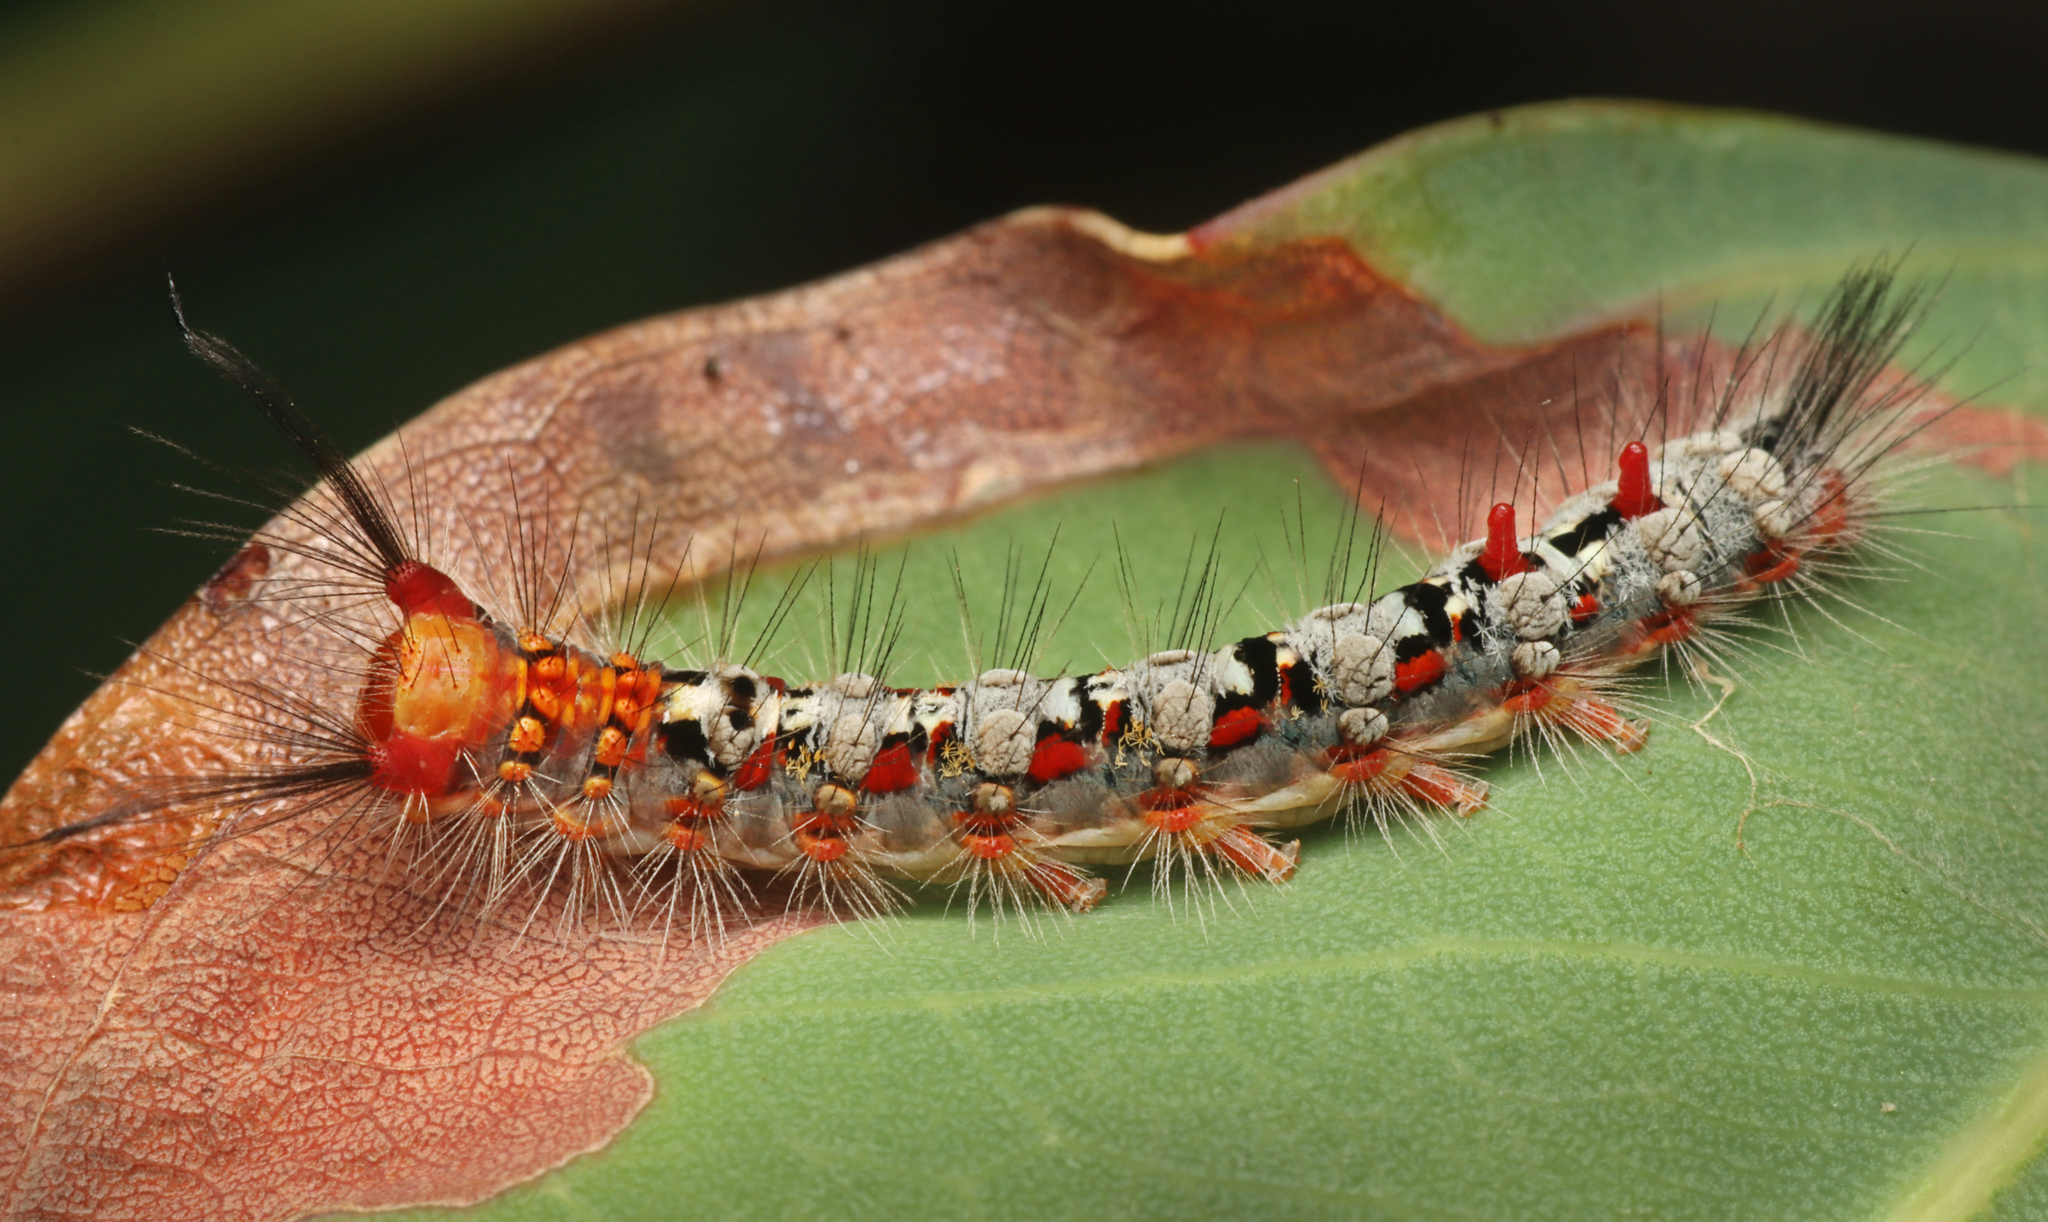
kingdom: Animalia
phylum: Arthropoda
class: Insecta
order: Lepidoptera
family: Erebidae
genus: Acyphas
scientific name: Acyphas semiochrea
